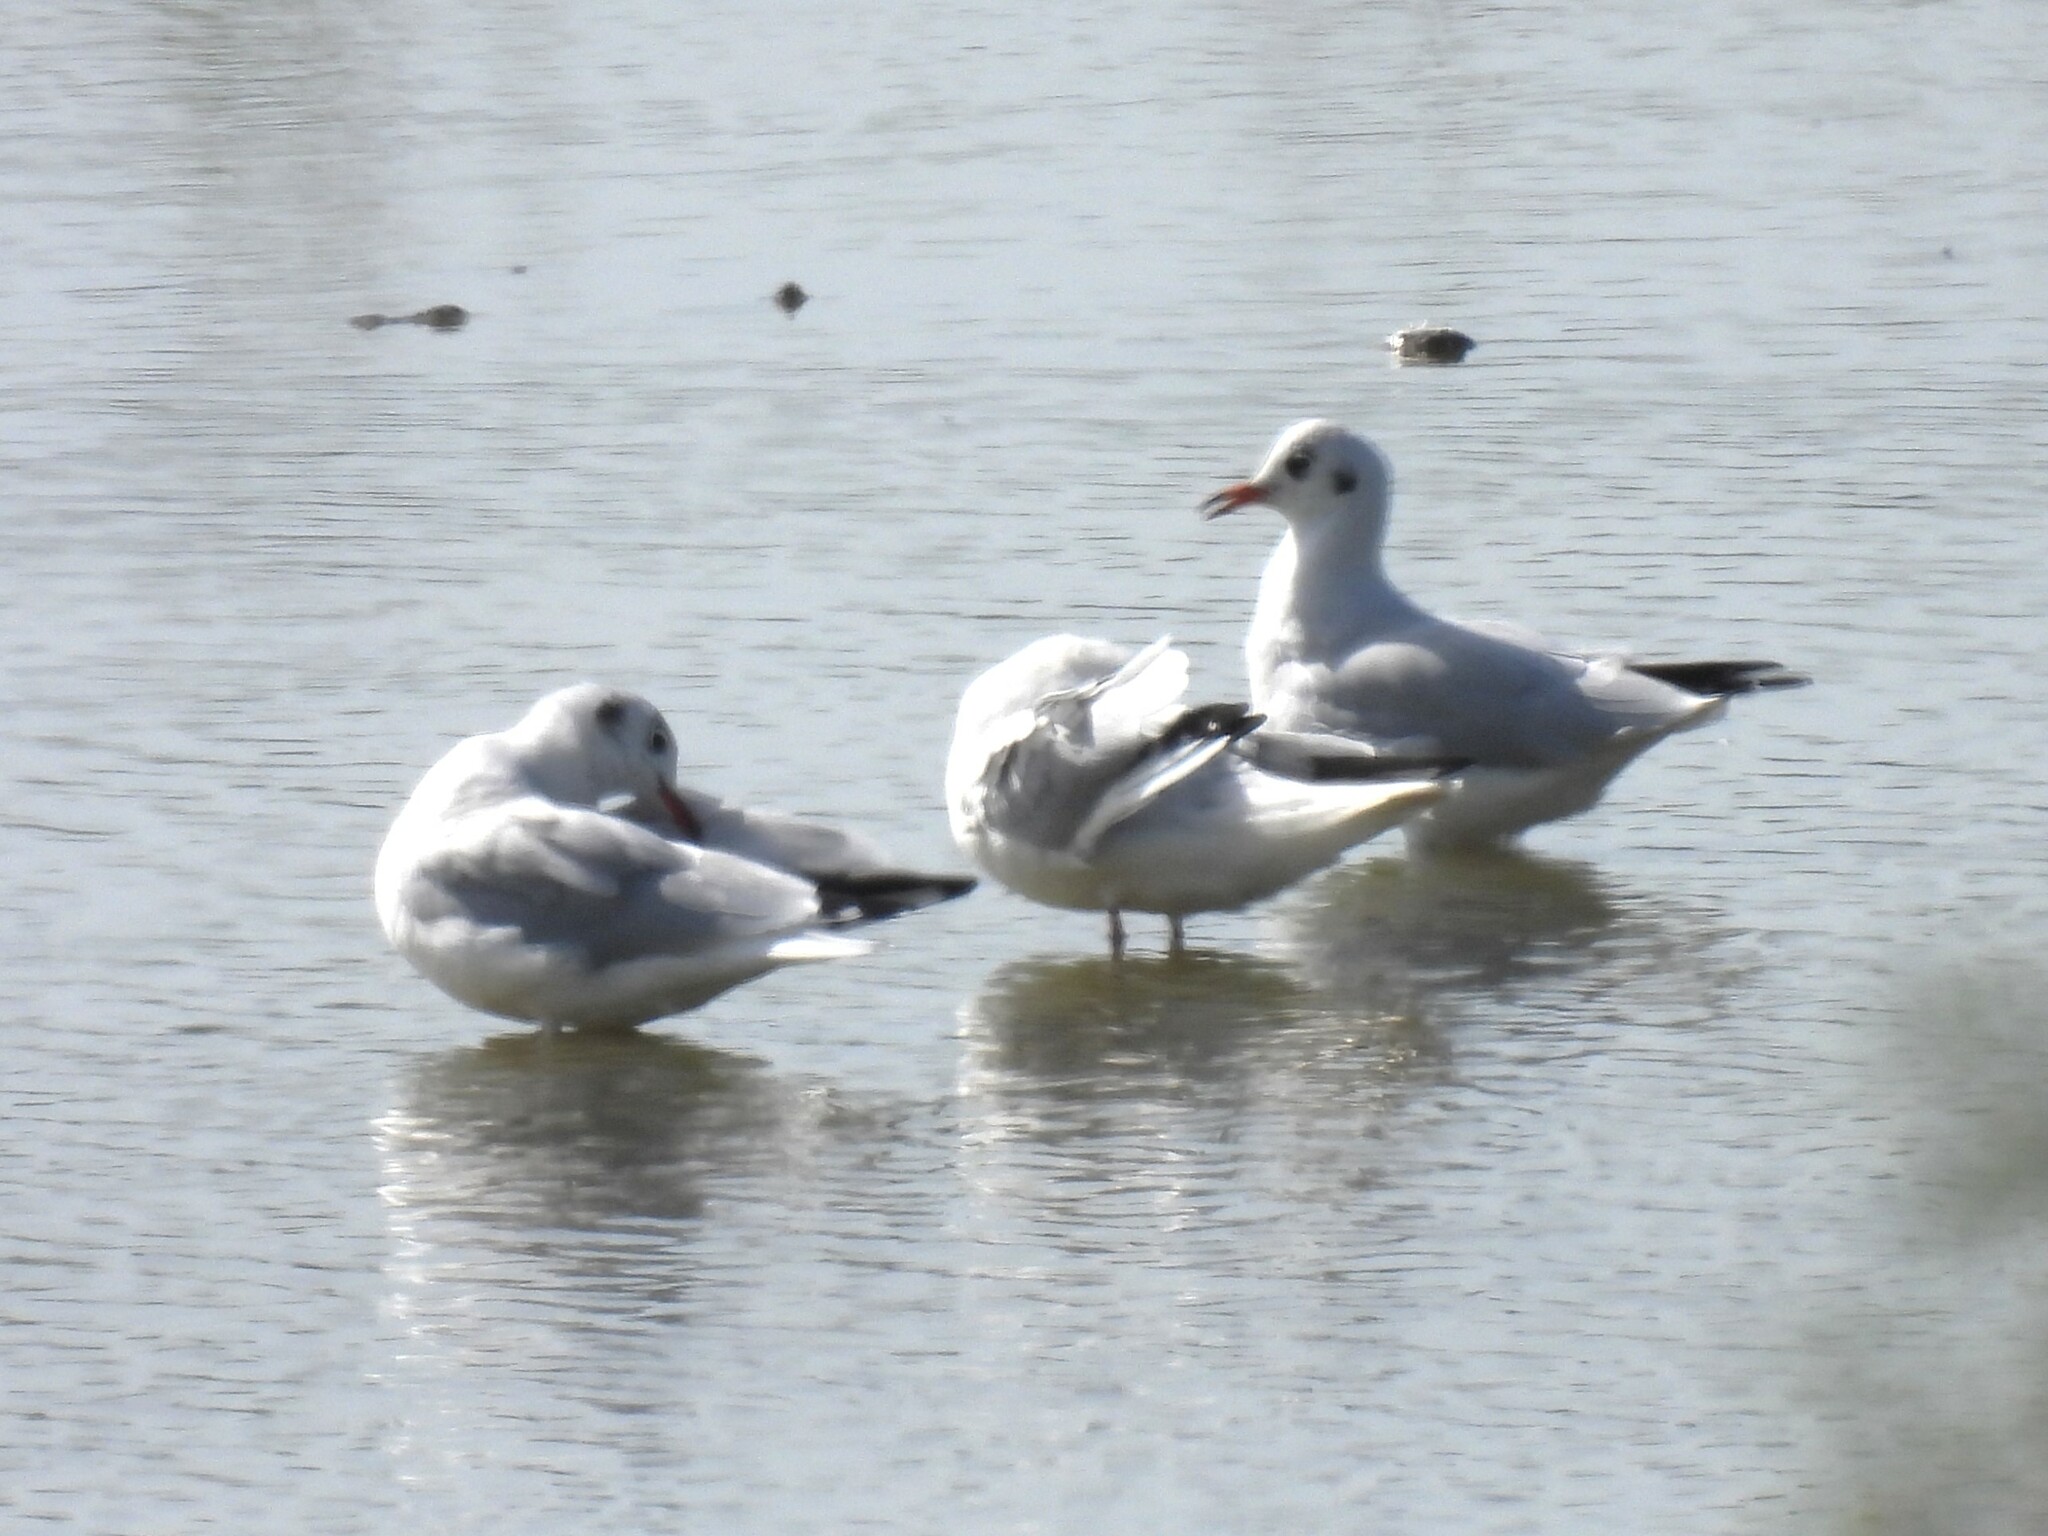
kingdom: Animalia
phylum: Chordata
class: Aves
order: Charadriiformes
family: Laridae
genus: Chroicocephalus
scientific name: Chroicocephalus ridibundus
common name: Black-headed gull
